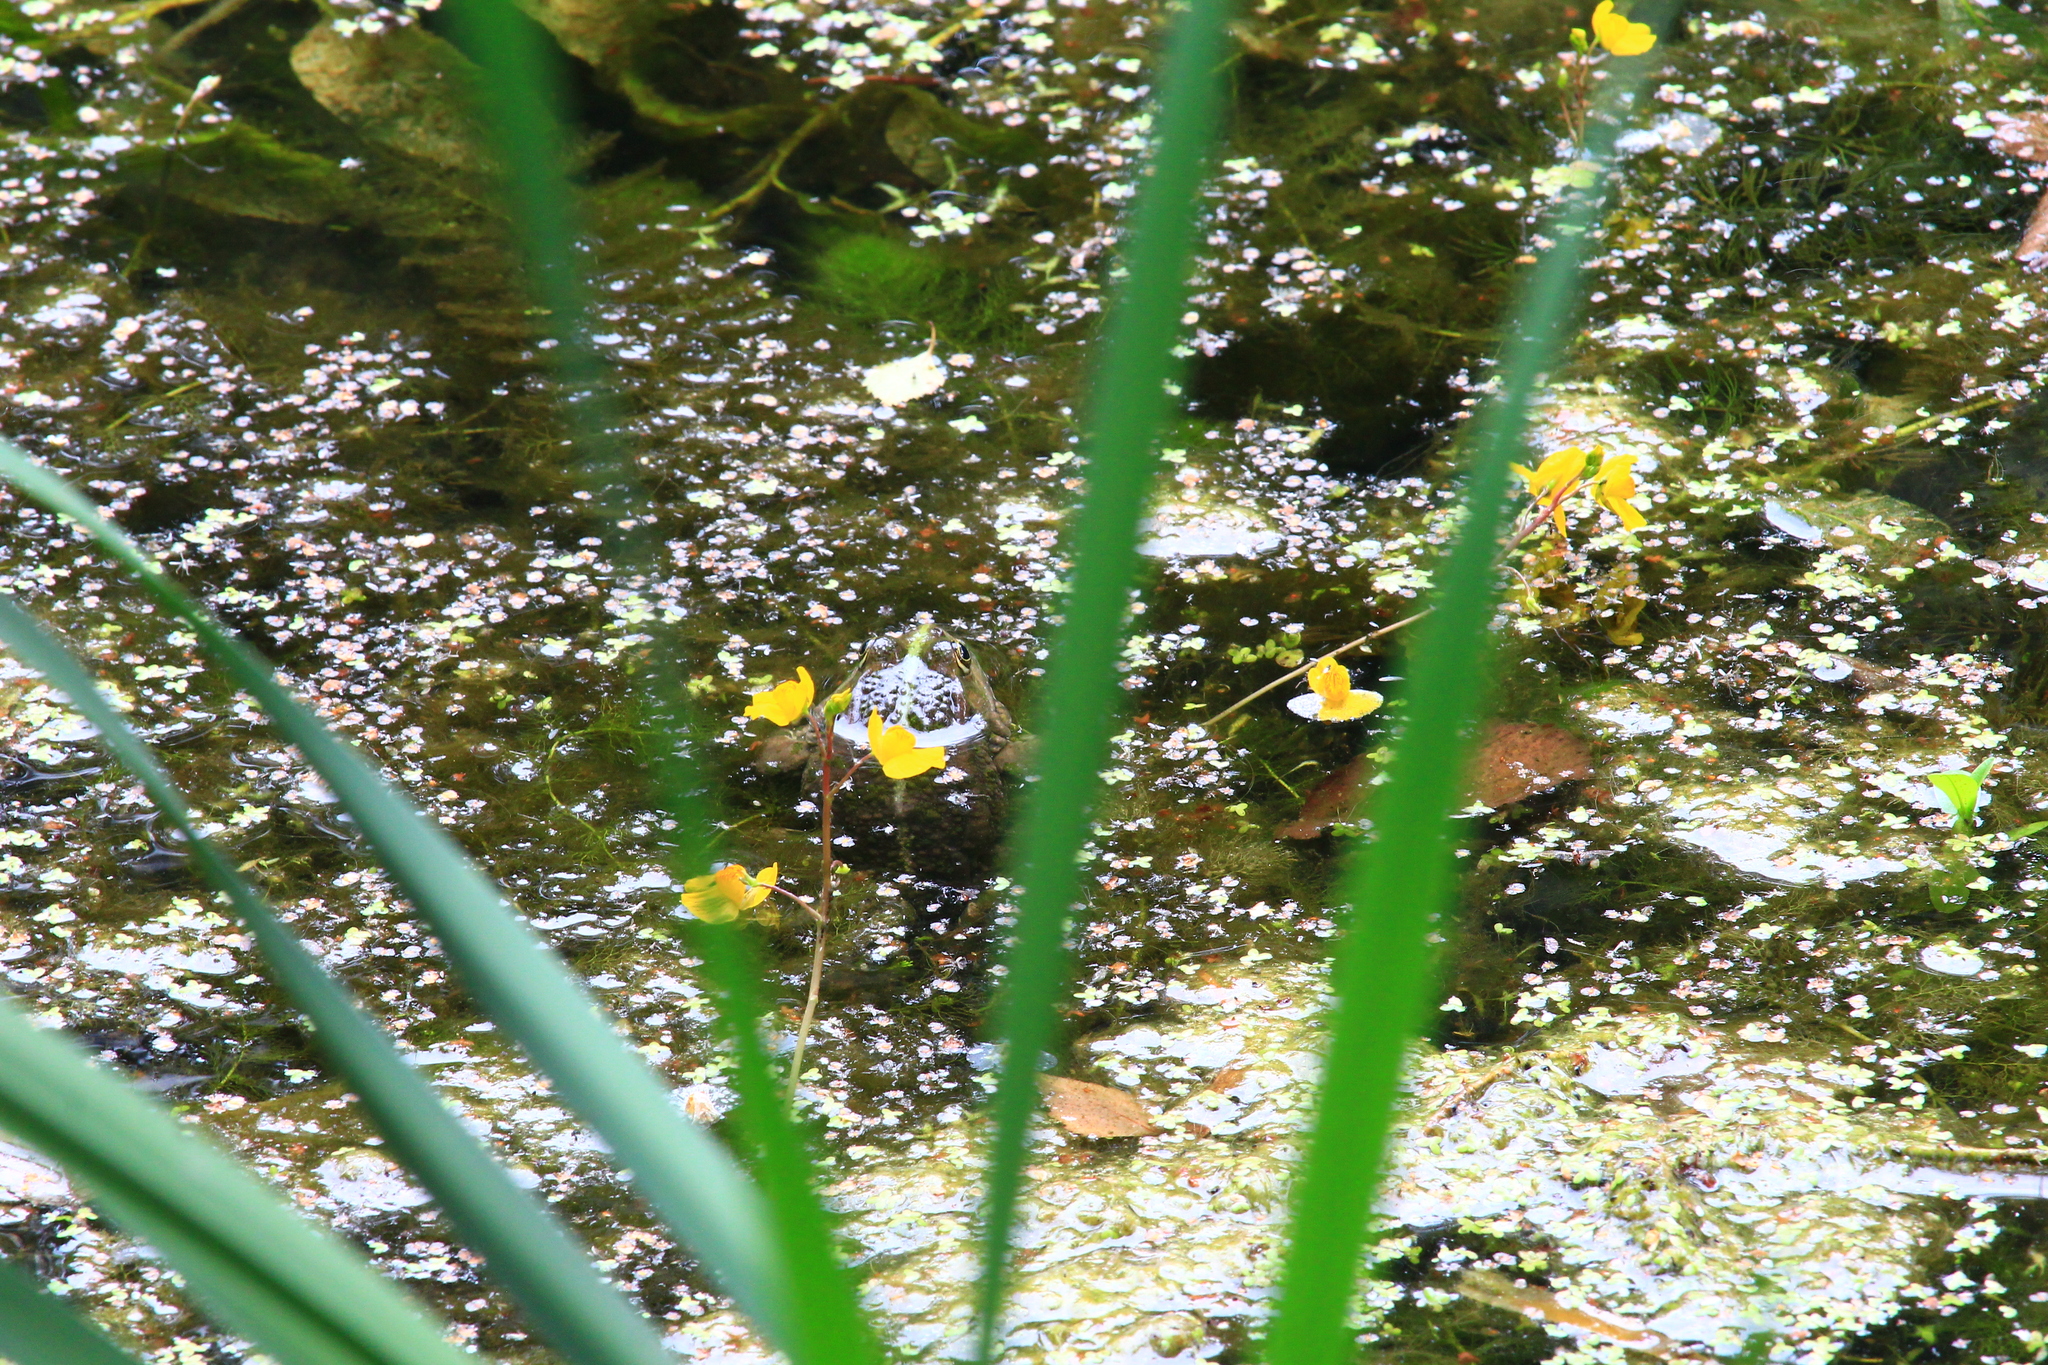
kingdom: Animalia
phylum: Chordata
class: Amphibia
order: Anura
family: Ranidae
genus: Pelophylax
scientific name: Pelophylax ridibundus
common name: Marsh frog
